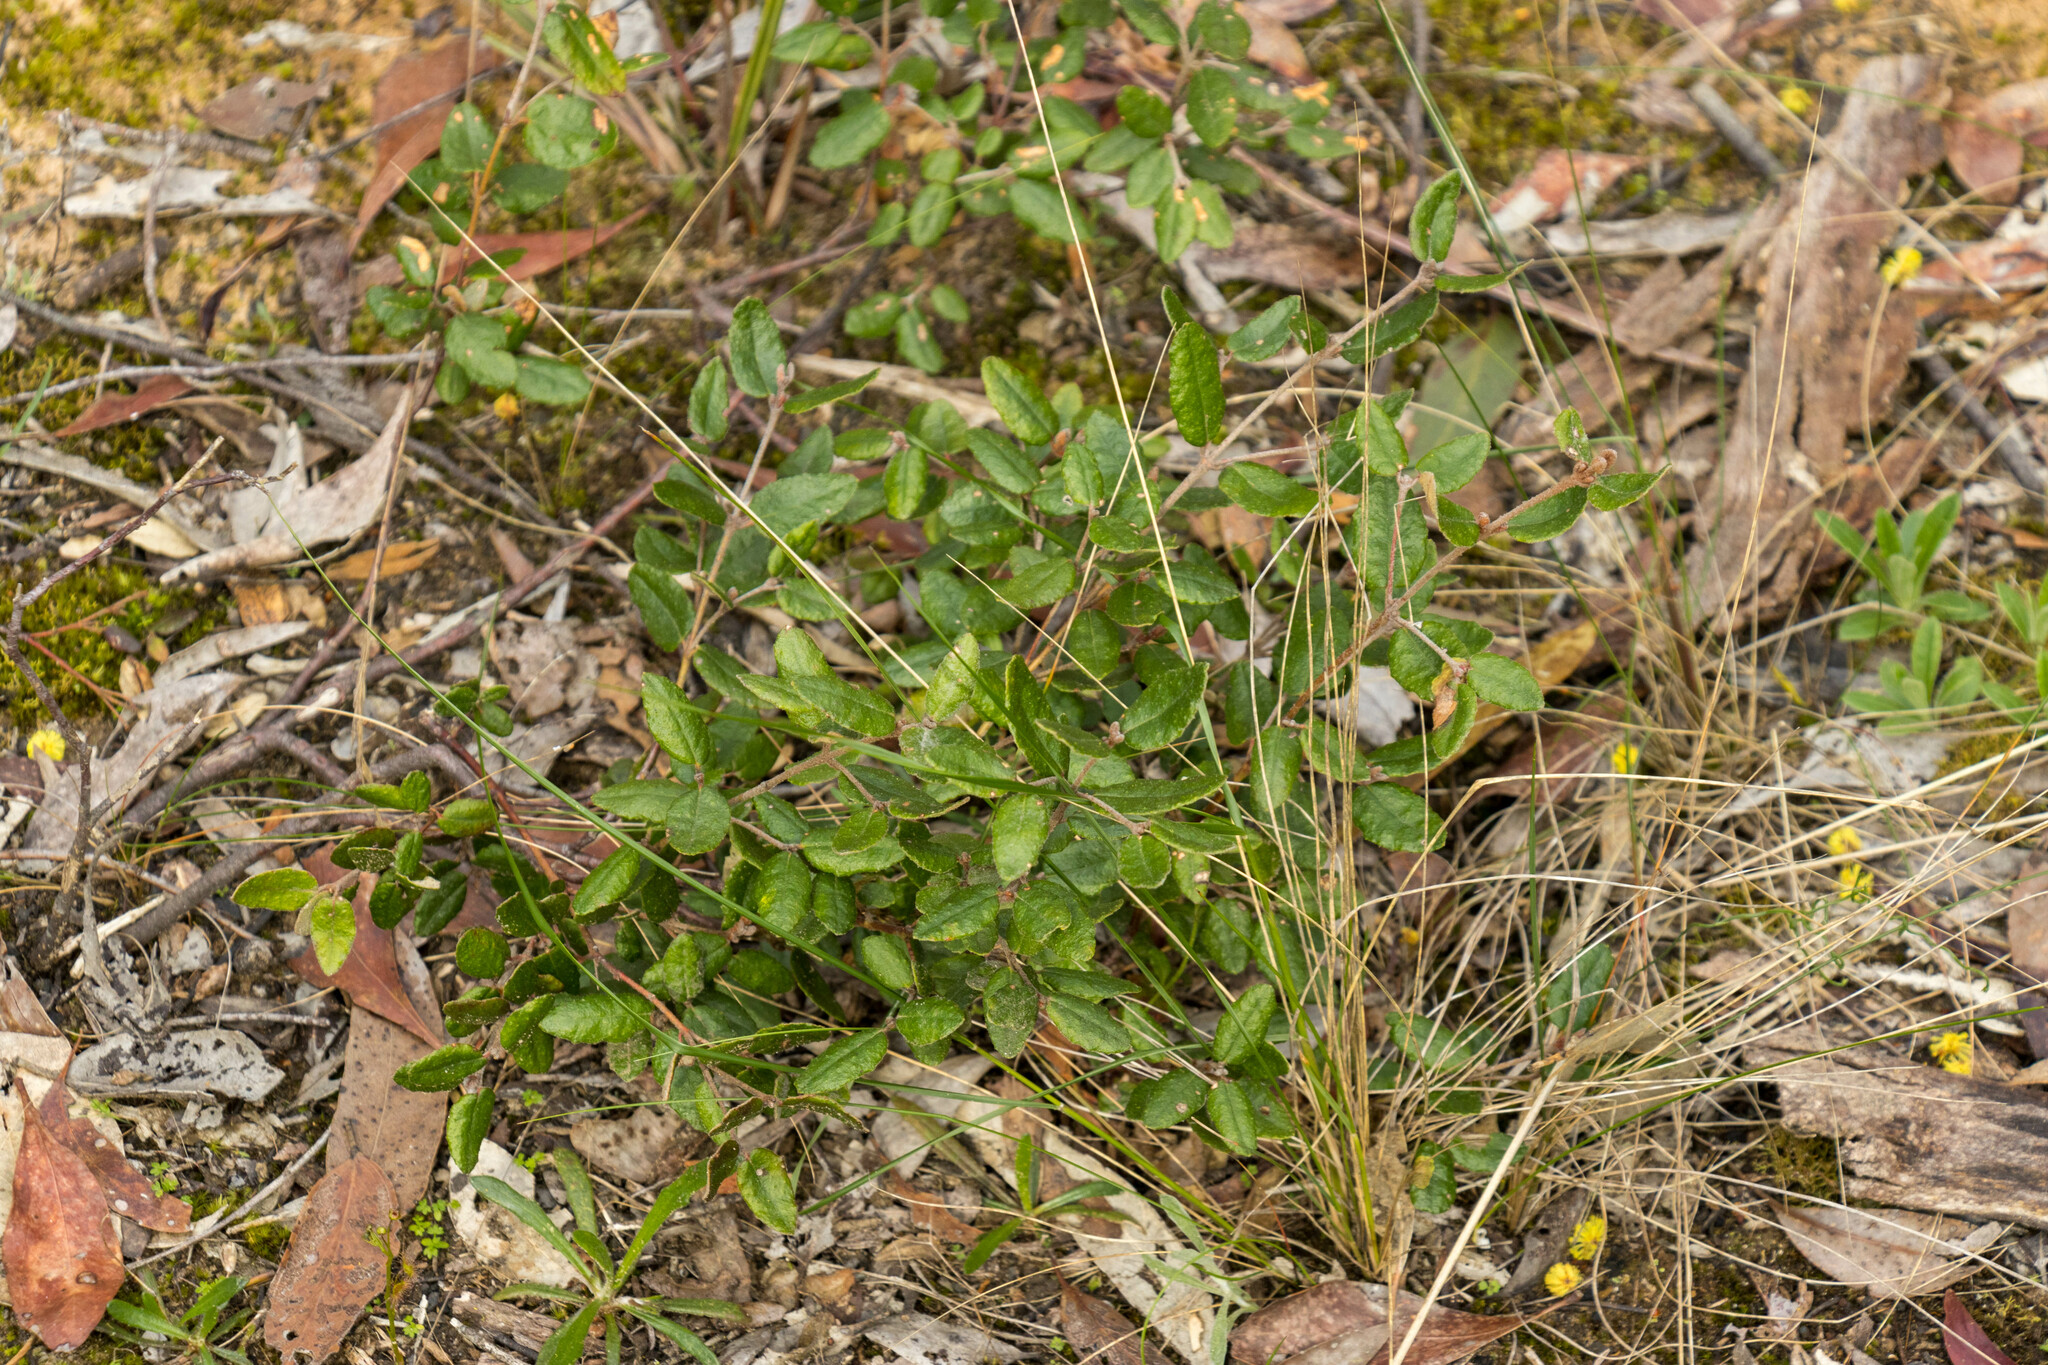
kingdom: Plantae
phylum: Tracheophyta
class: Magnoliopsida
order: Sapindales
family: Rutaceae
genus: Correa
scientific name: Correa reflexa
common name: Common correa
